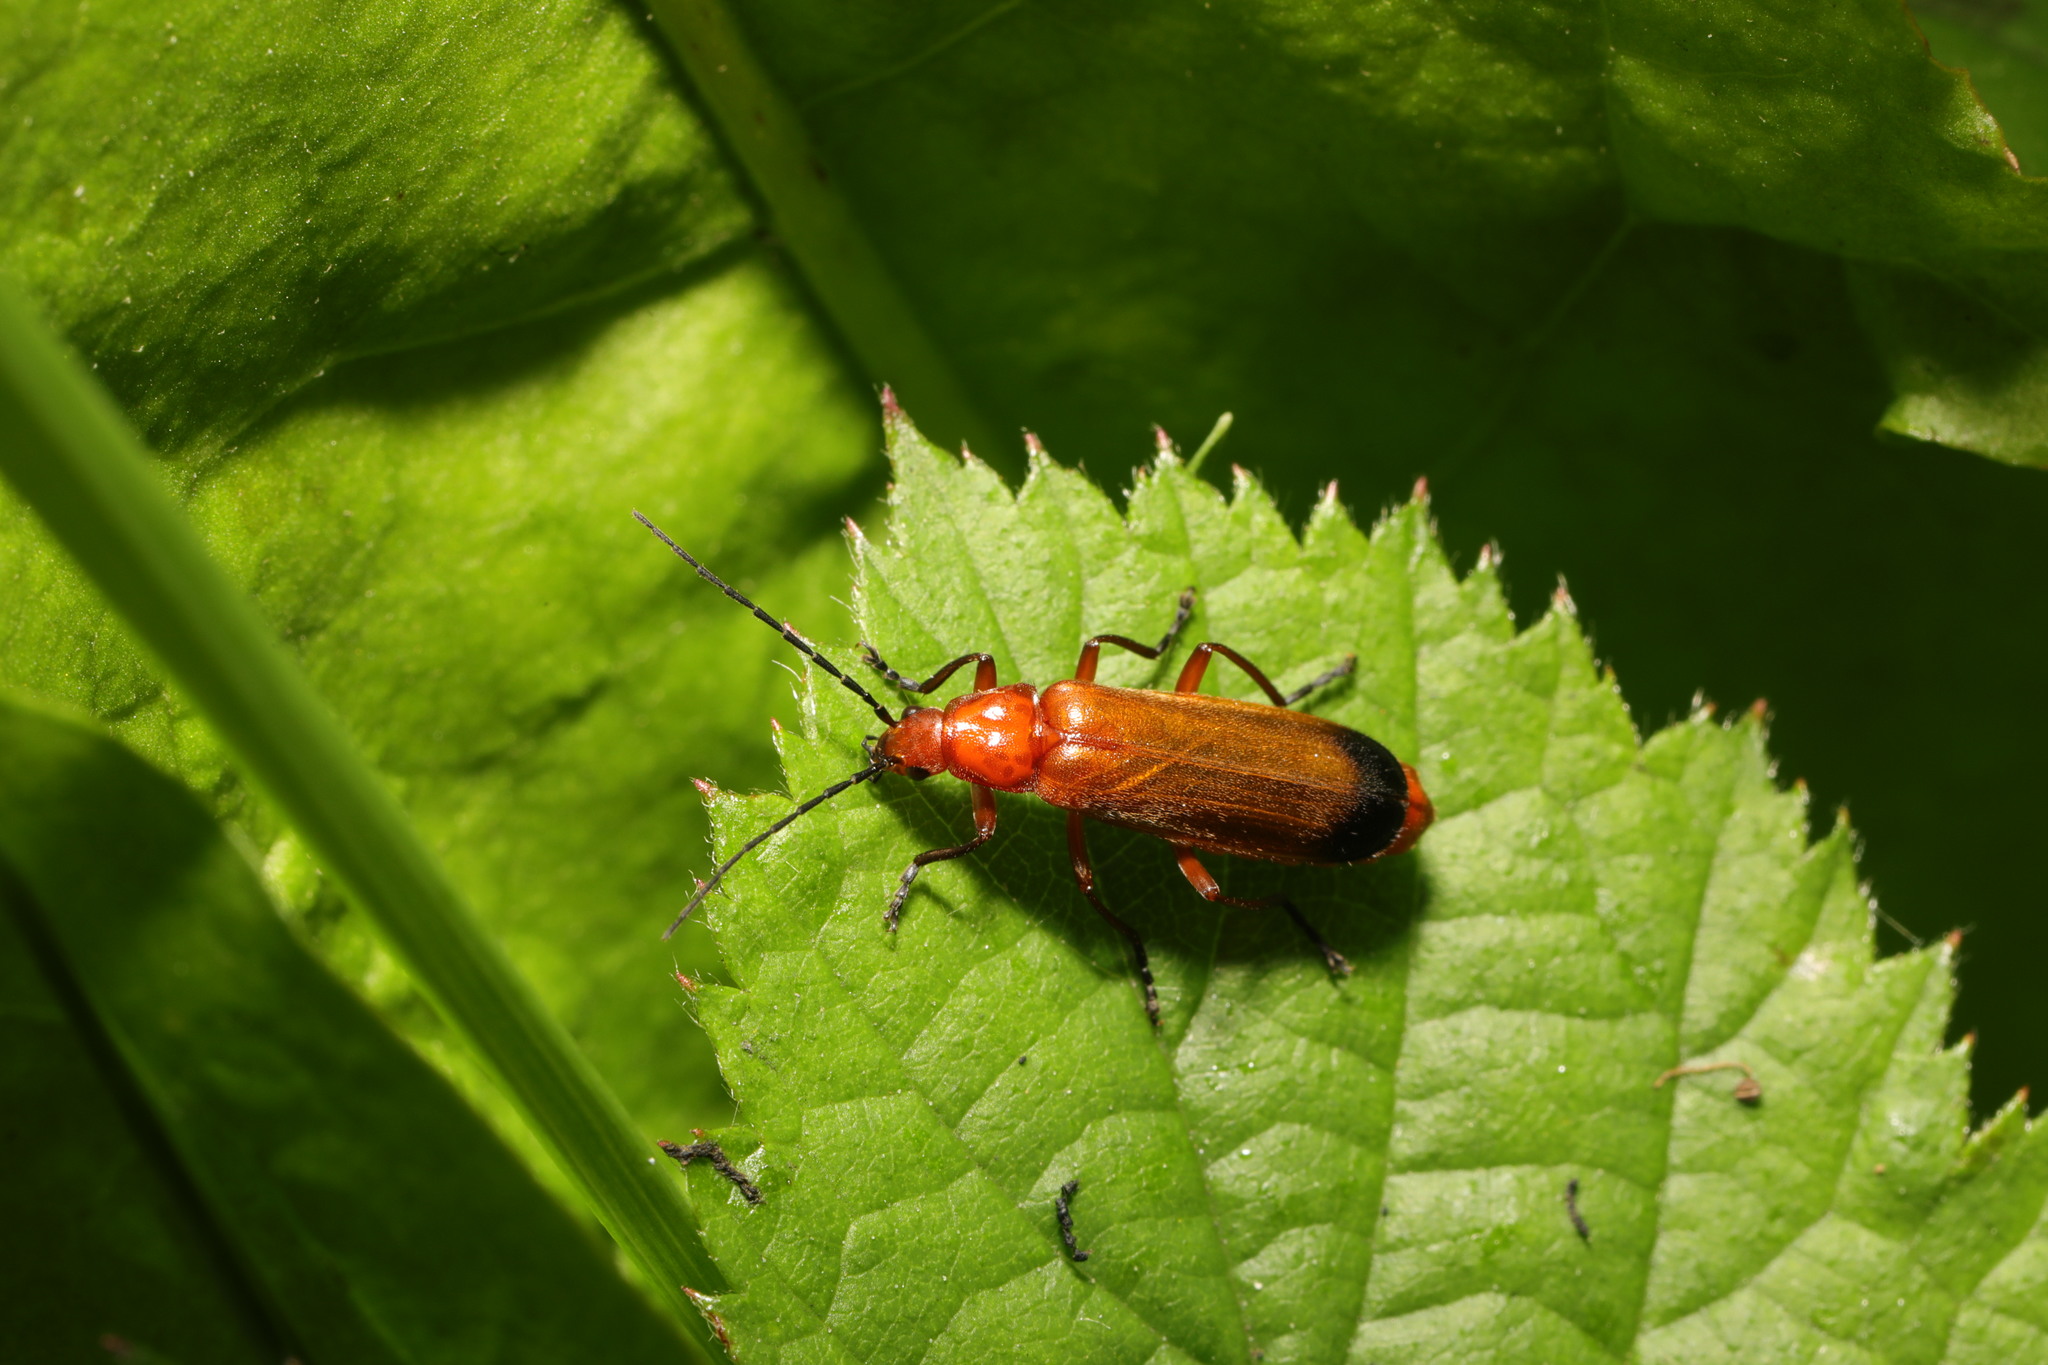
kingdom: Animalia
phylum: Arthropoda
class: Insecta
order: Coleoptera
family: Cantharidae
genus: Rhagonycha
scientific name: Rhagonycha fulva
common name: Common red soldier beetle
